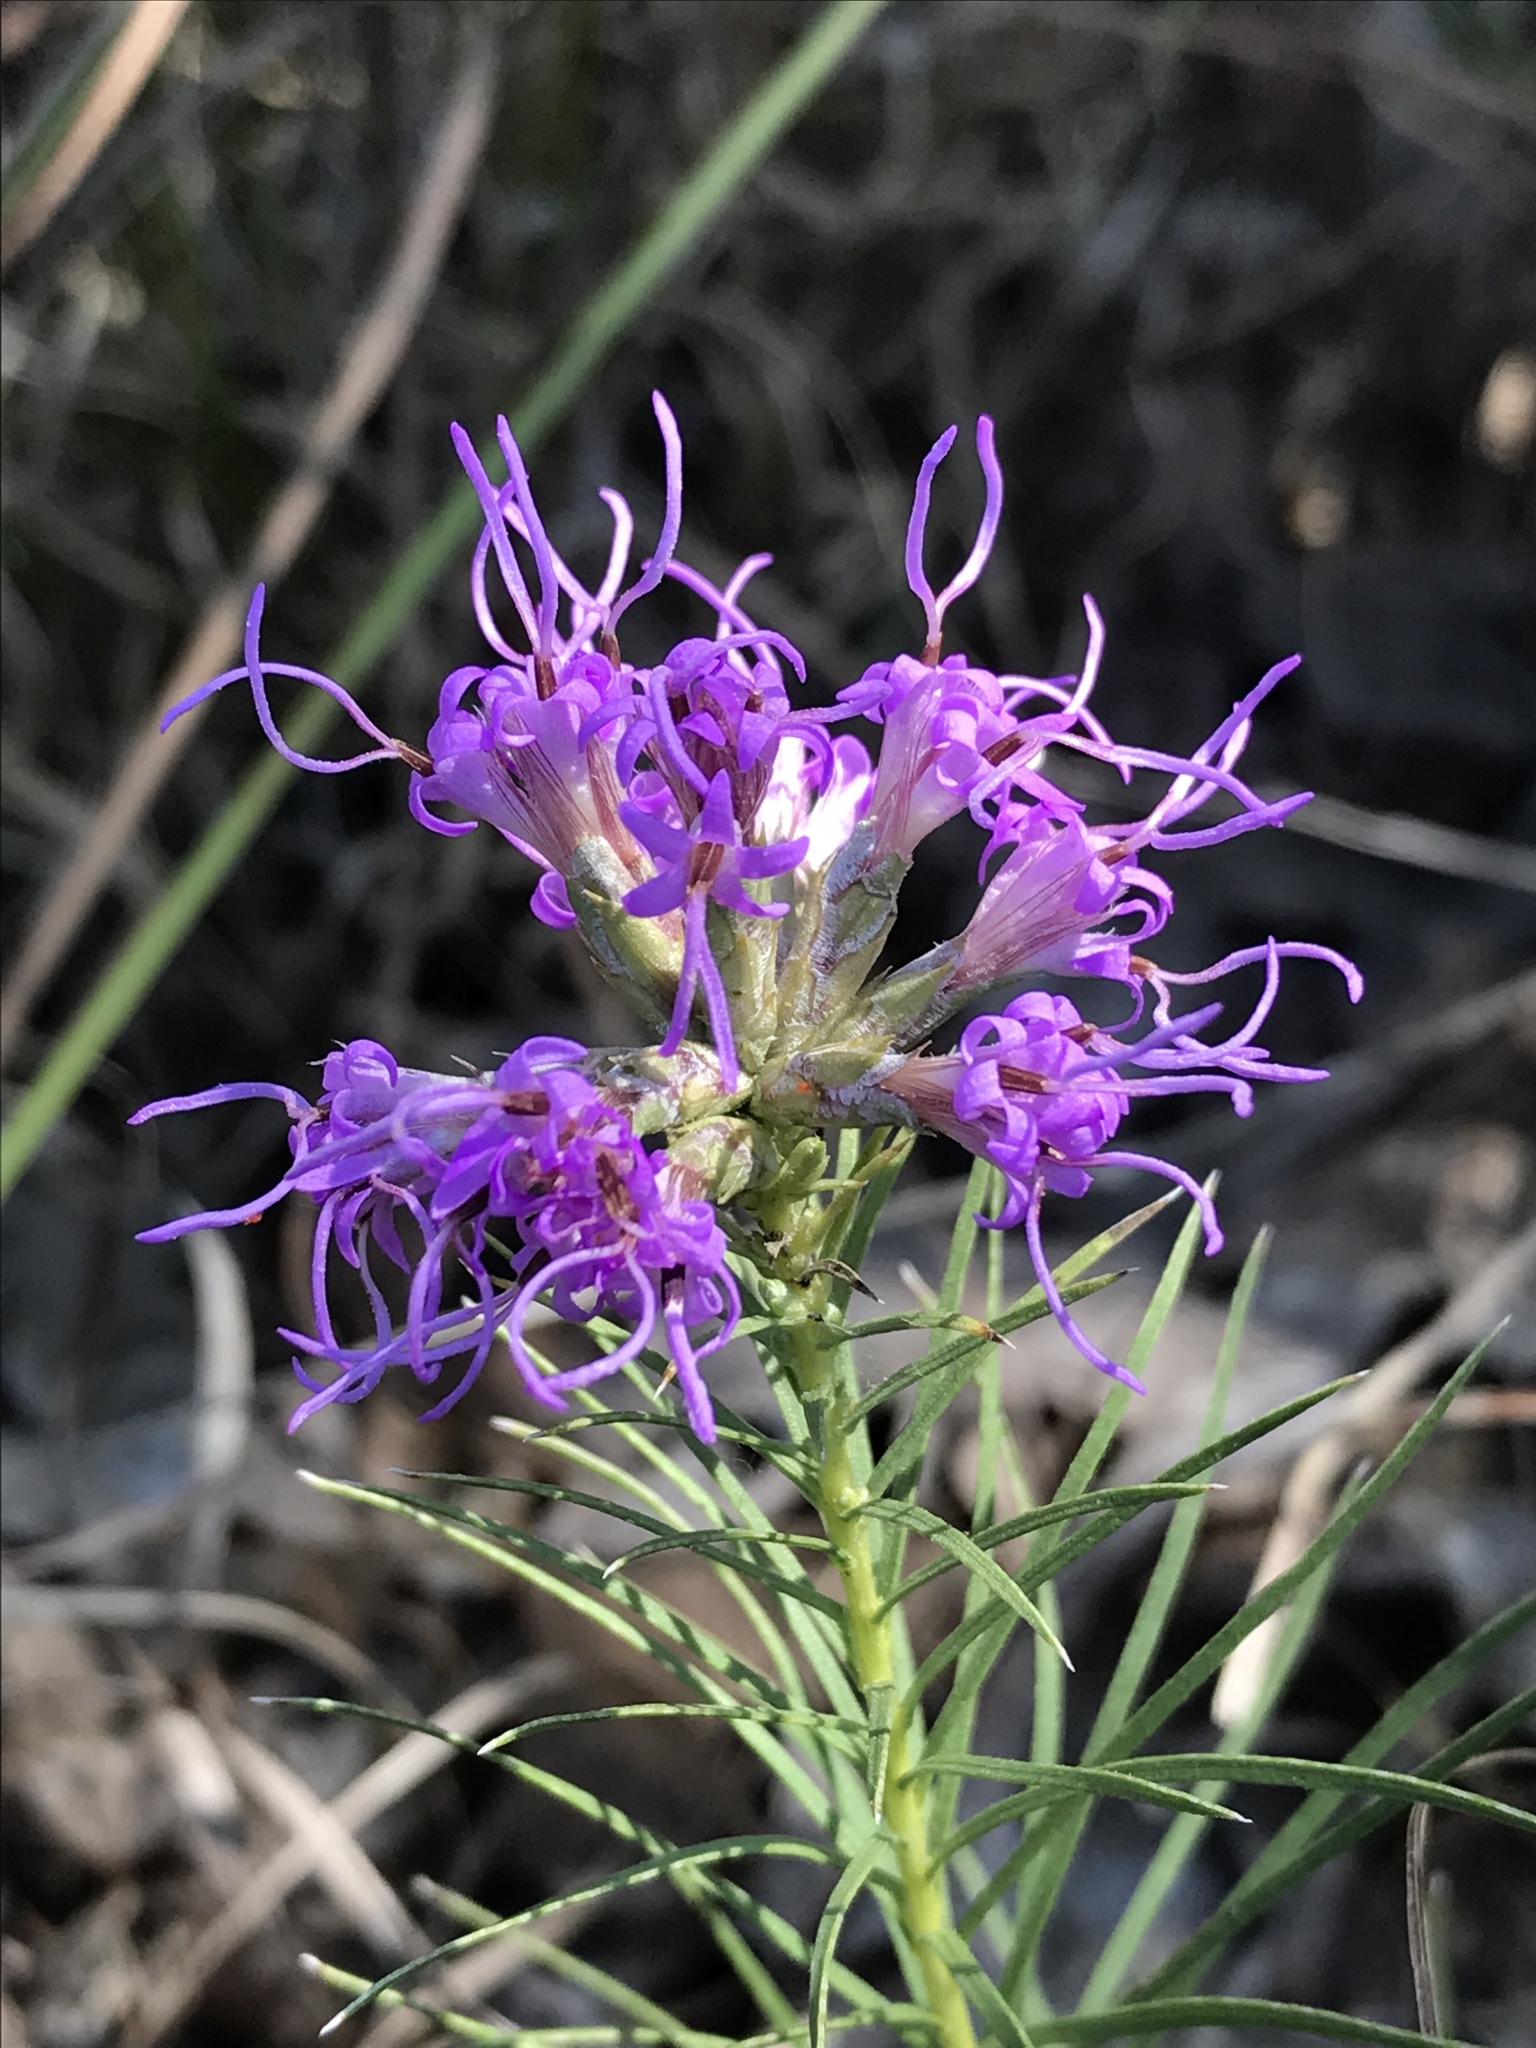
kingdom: Plantae
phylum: Tracheophyta
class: Magnoliopsida
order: Asterales
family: Asteraceae
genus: Liatris
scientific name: Liatris punctata
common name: Dotted gayfeather
